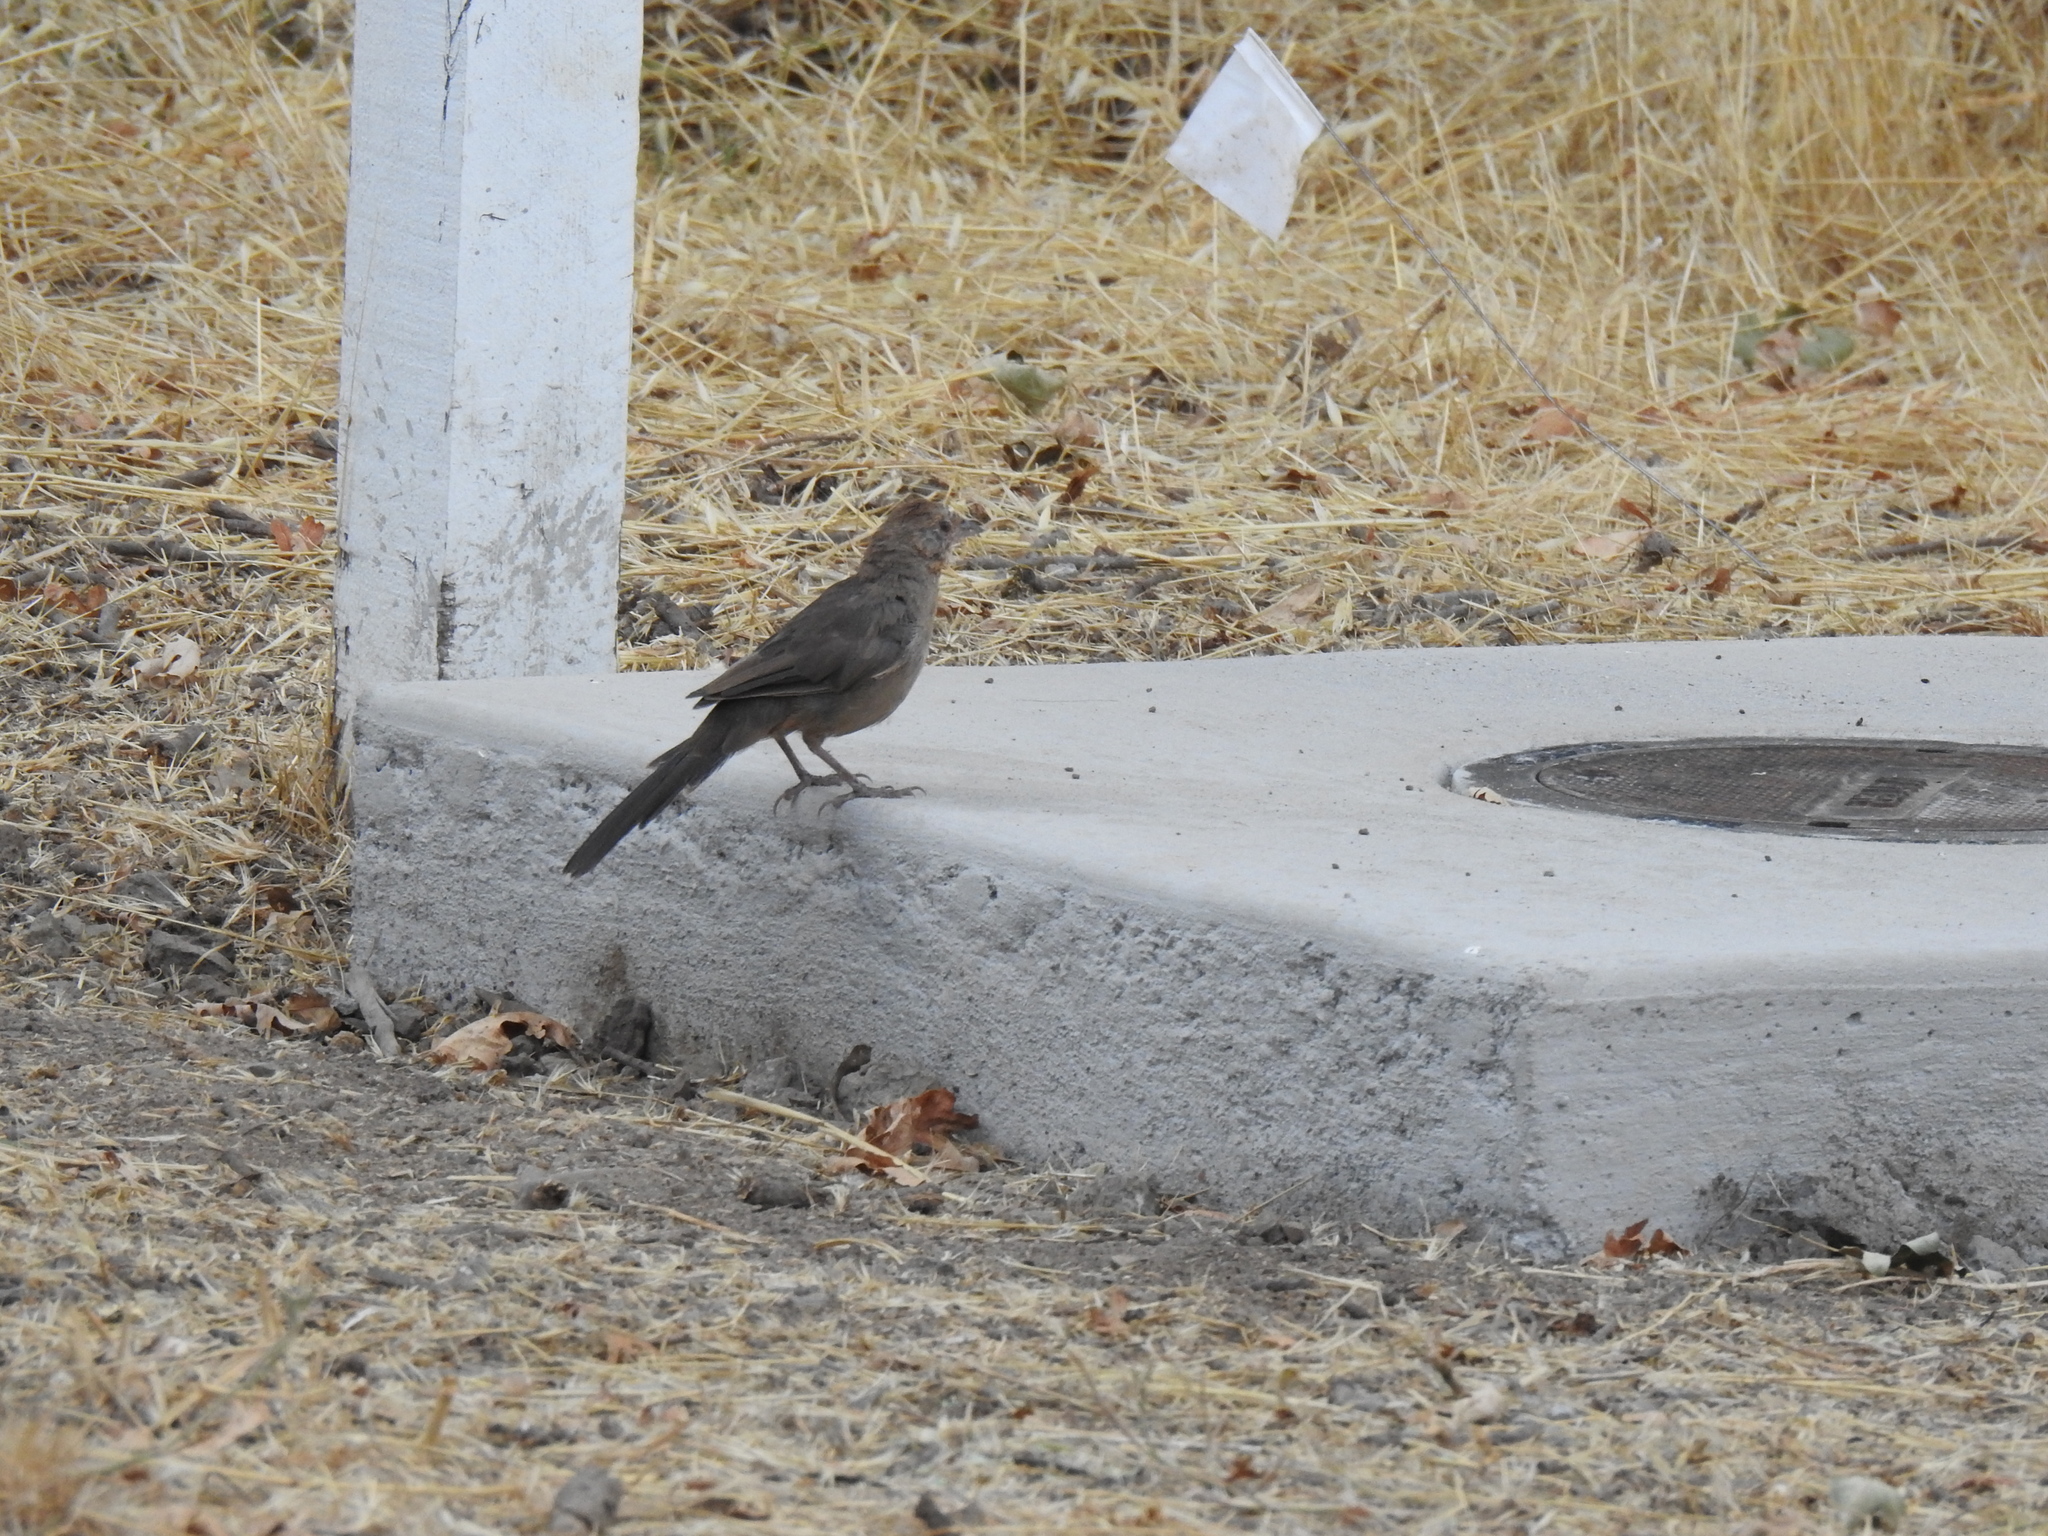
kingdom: Animalia
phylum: Chordata
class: Aves
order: Passeriformes
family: Passerellidae
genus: Melozone
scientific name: Melozone crissalis
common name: California towhee
